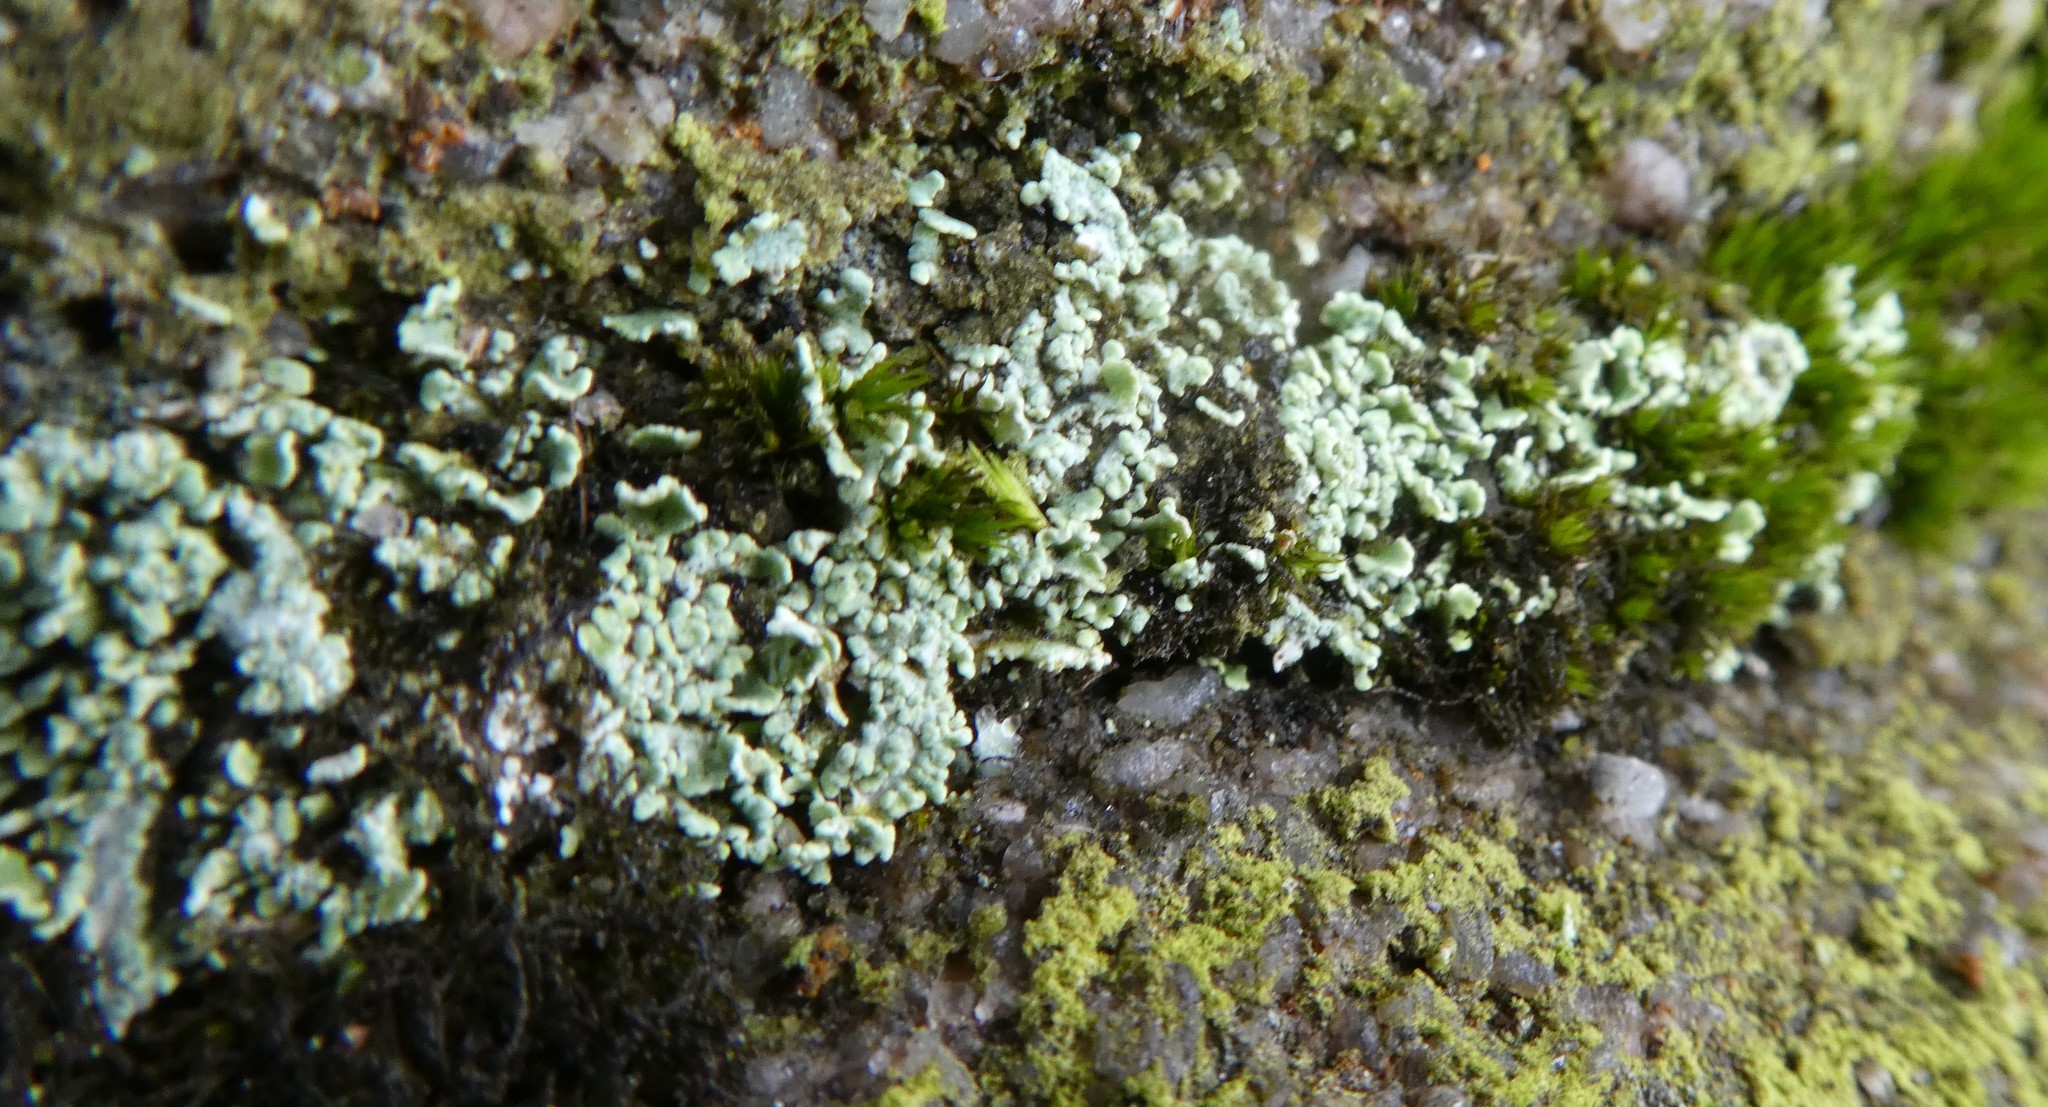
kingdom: Fungi
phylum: Ascomycota
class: Lecanoromycetes
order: Lecanorales
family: Cladoniaceae
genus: Cladonia
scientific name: Cladonia
